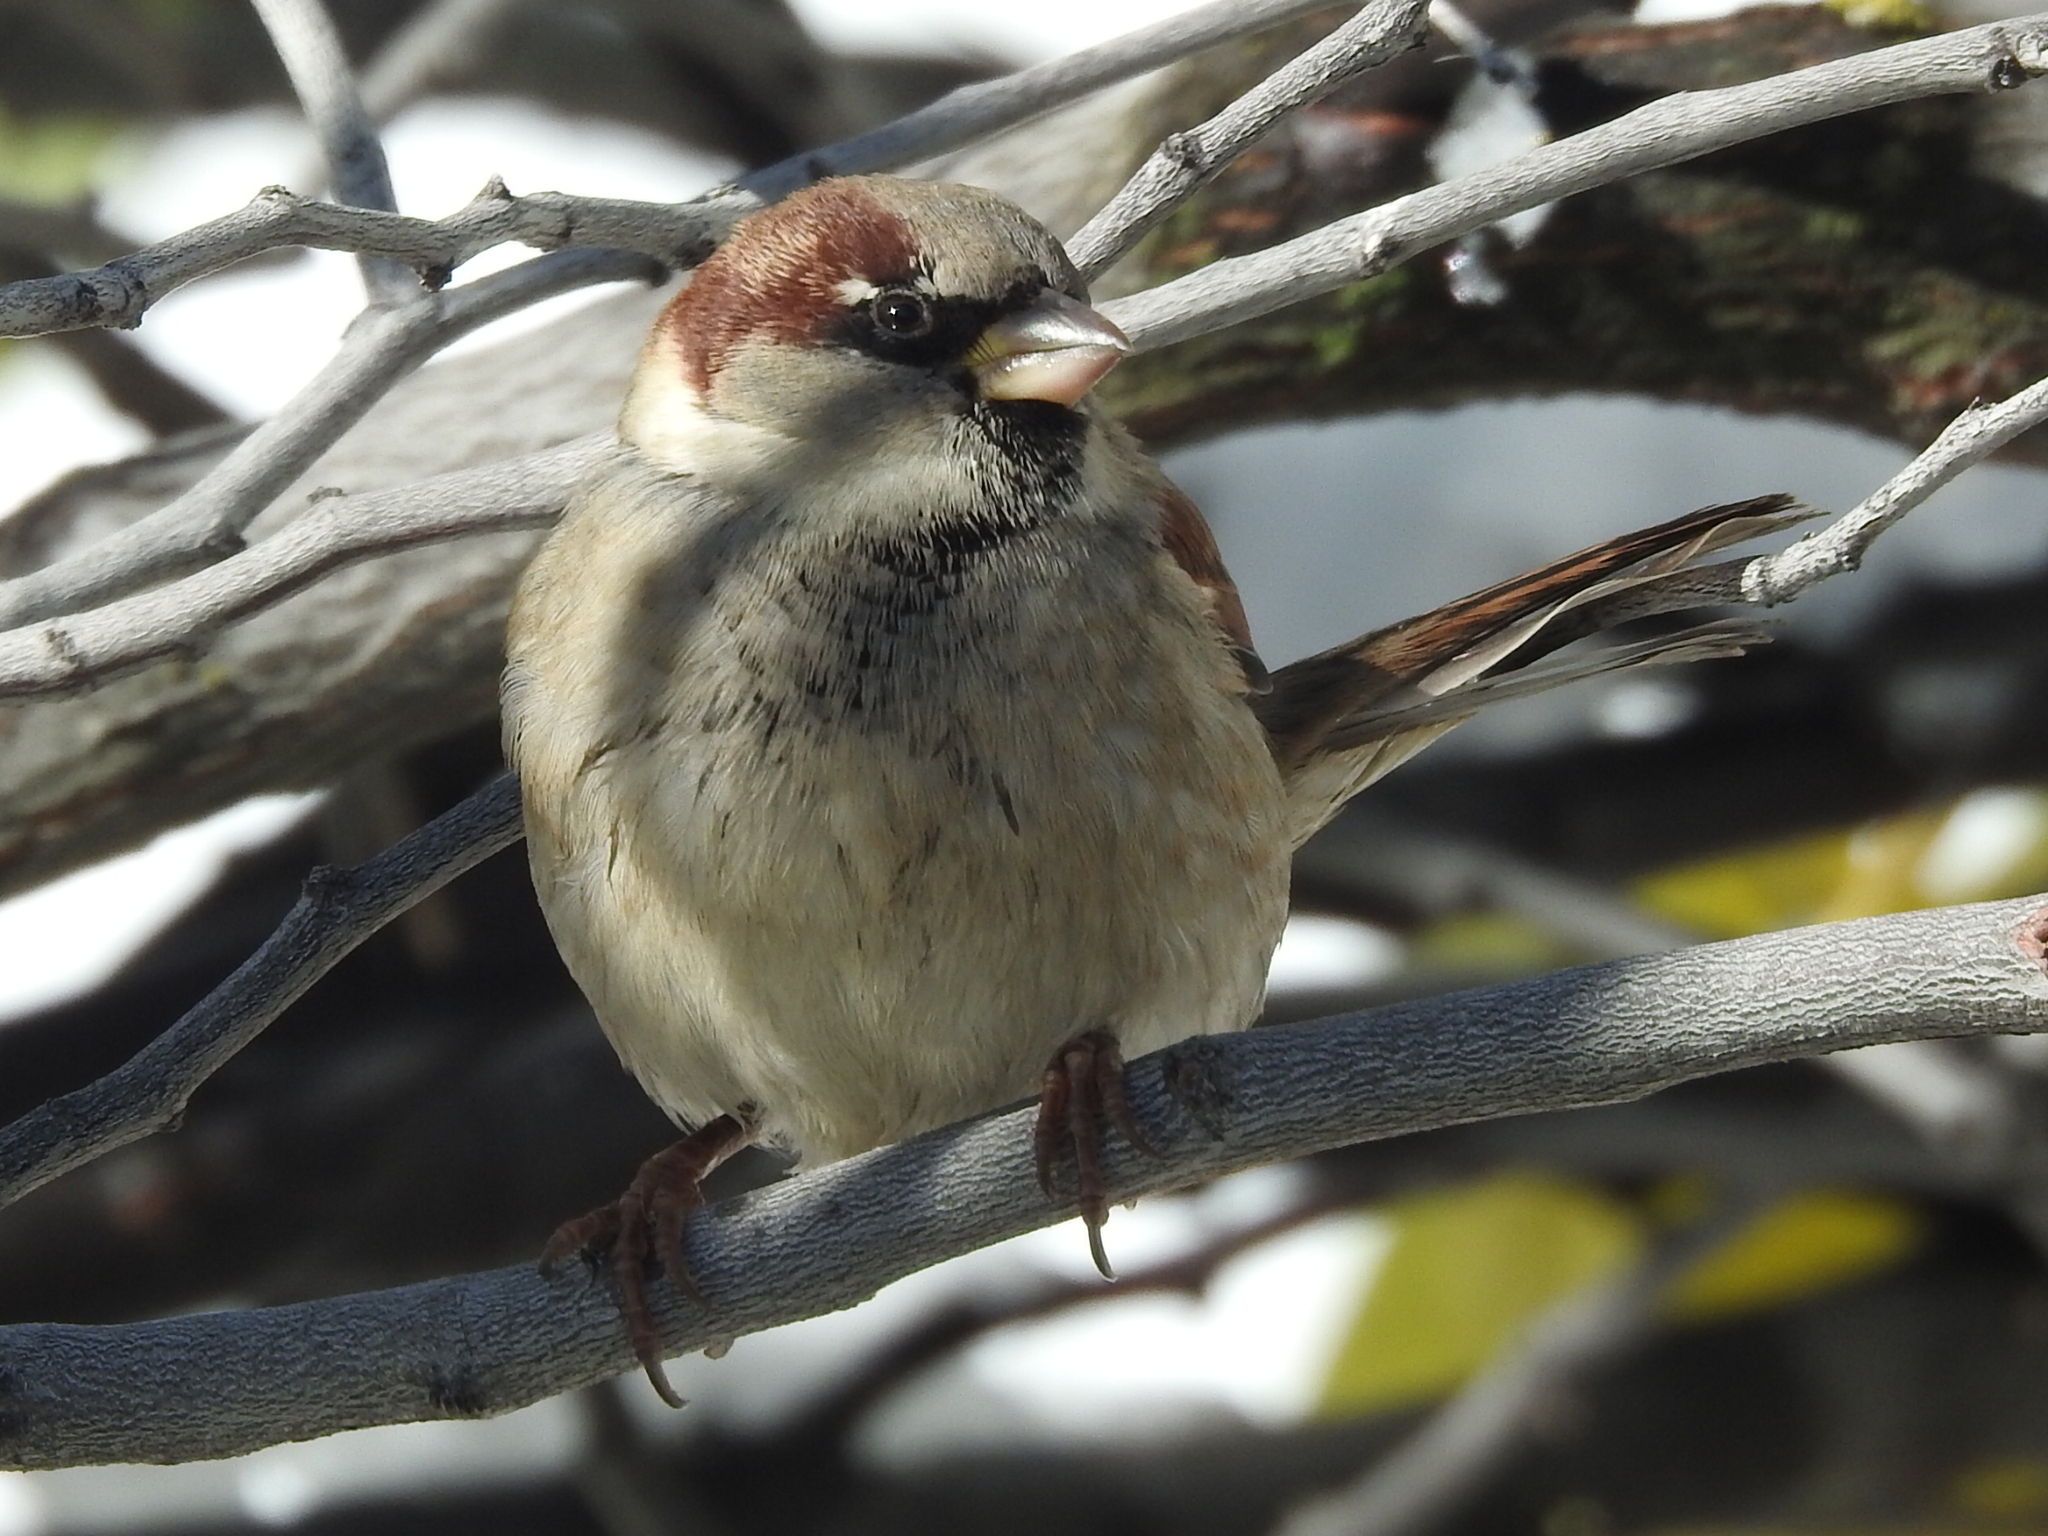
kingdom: Animalia
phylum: Chordata
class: Aves
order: Passeriformes
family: Passeridae
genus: Passer
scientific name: Passer domesticus
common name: House sparrow
